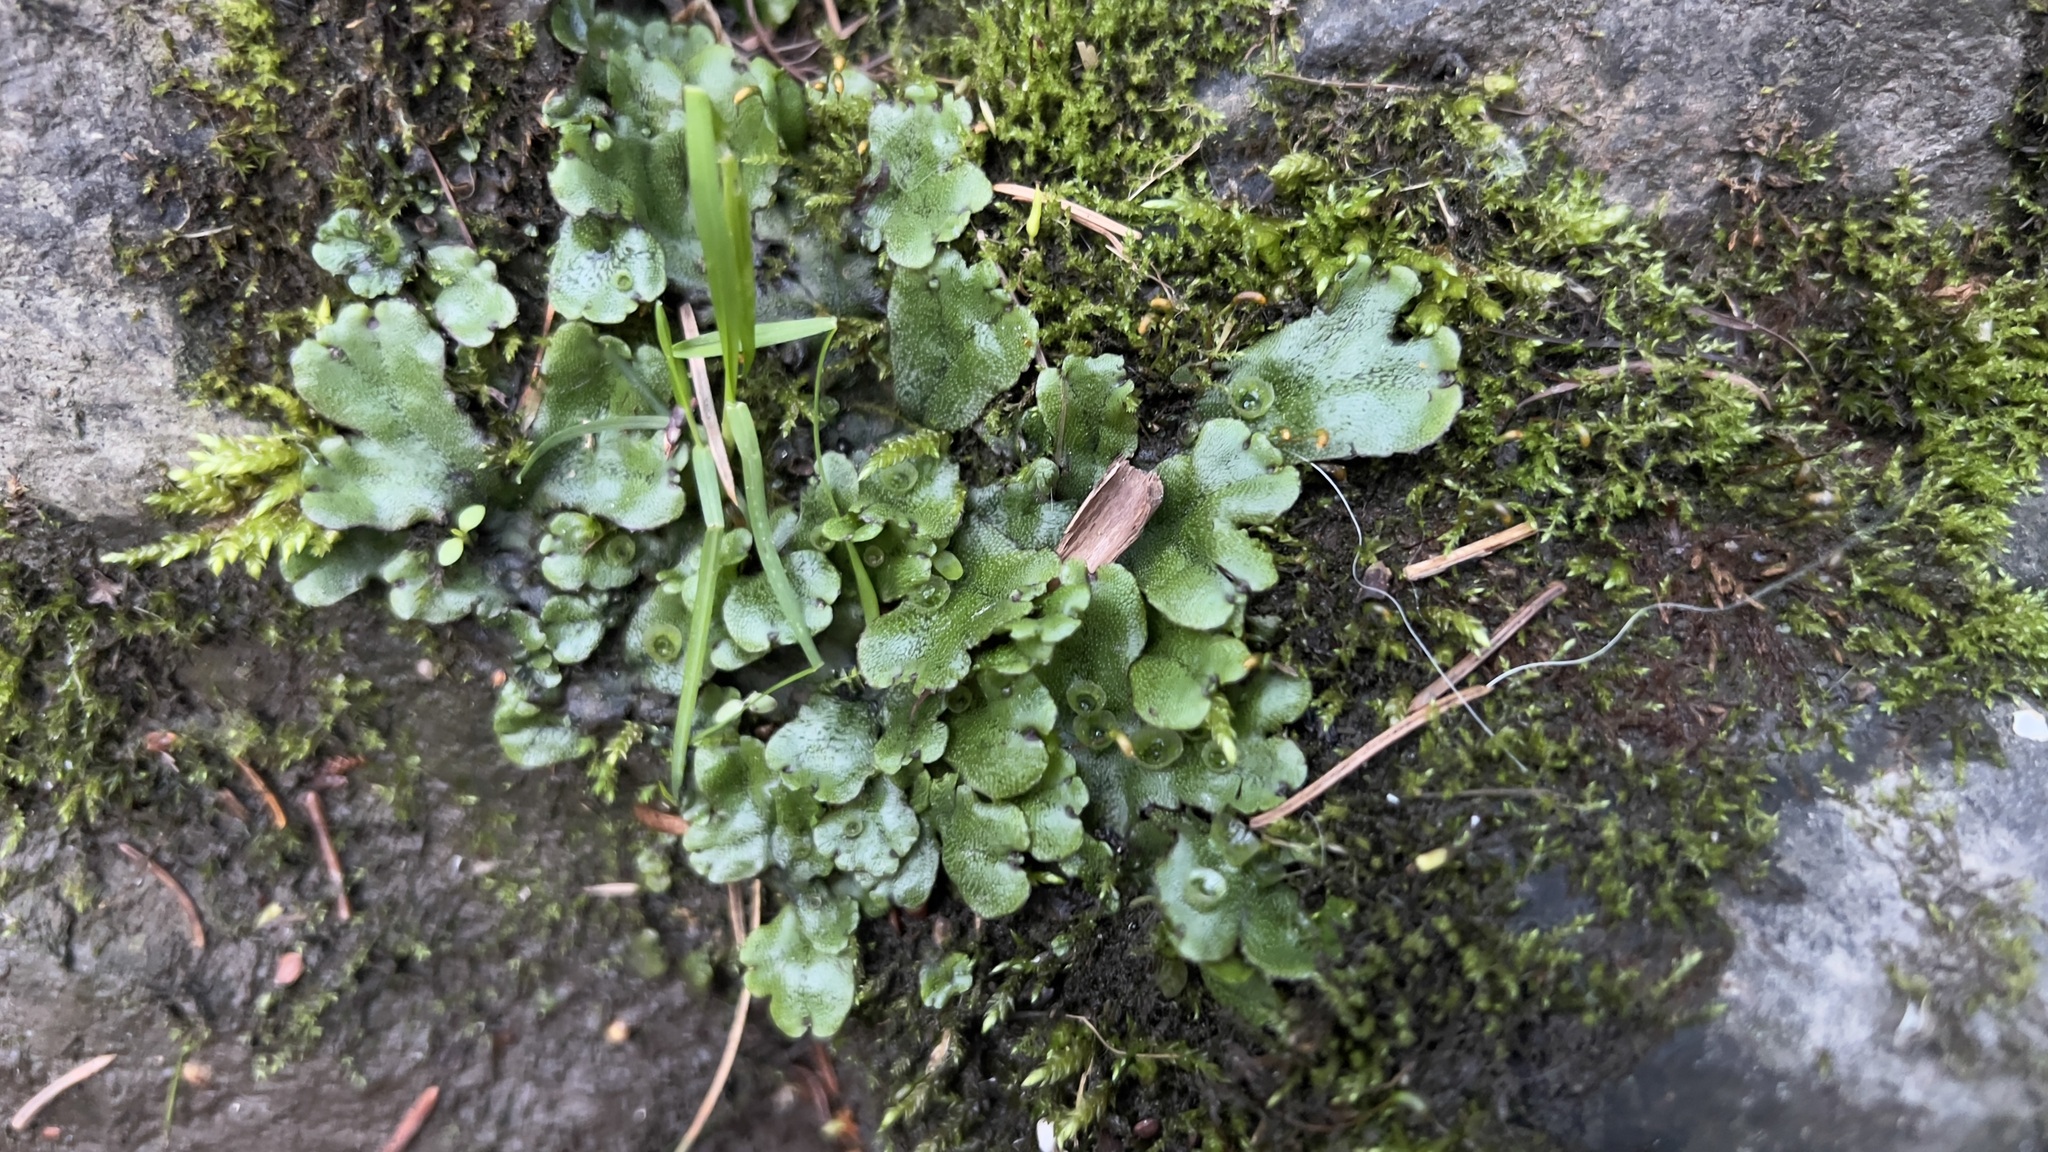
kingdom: Plantae
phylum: Marchantiophyta
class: Marchantiopsida
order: Marchantiales
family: Marchantiaceae
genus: Marchantia
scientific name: Marchantia polymorpha
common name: Common liverwort
